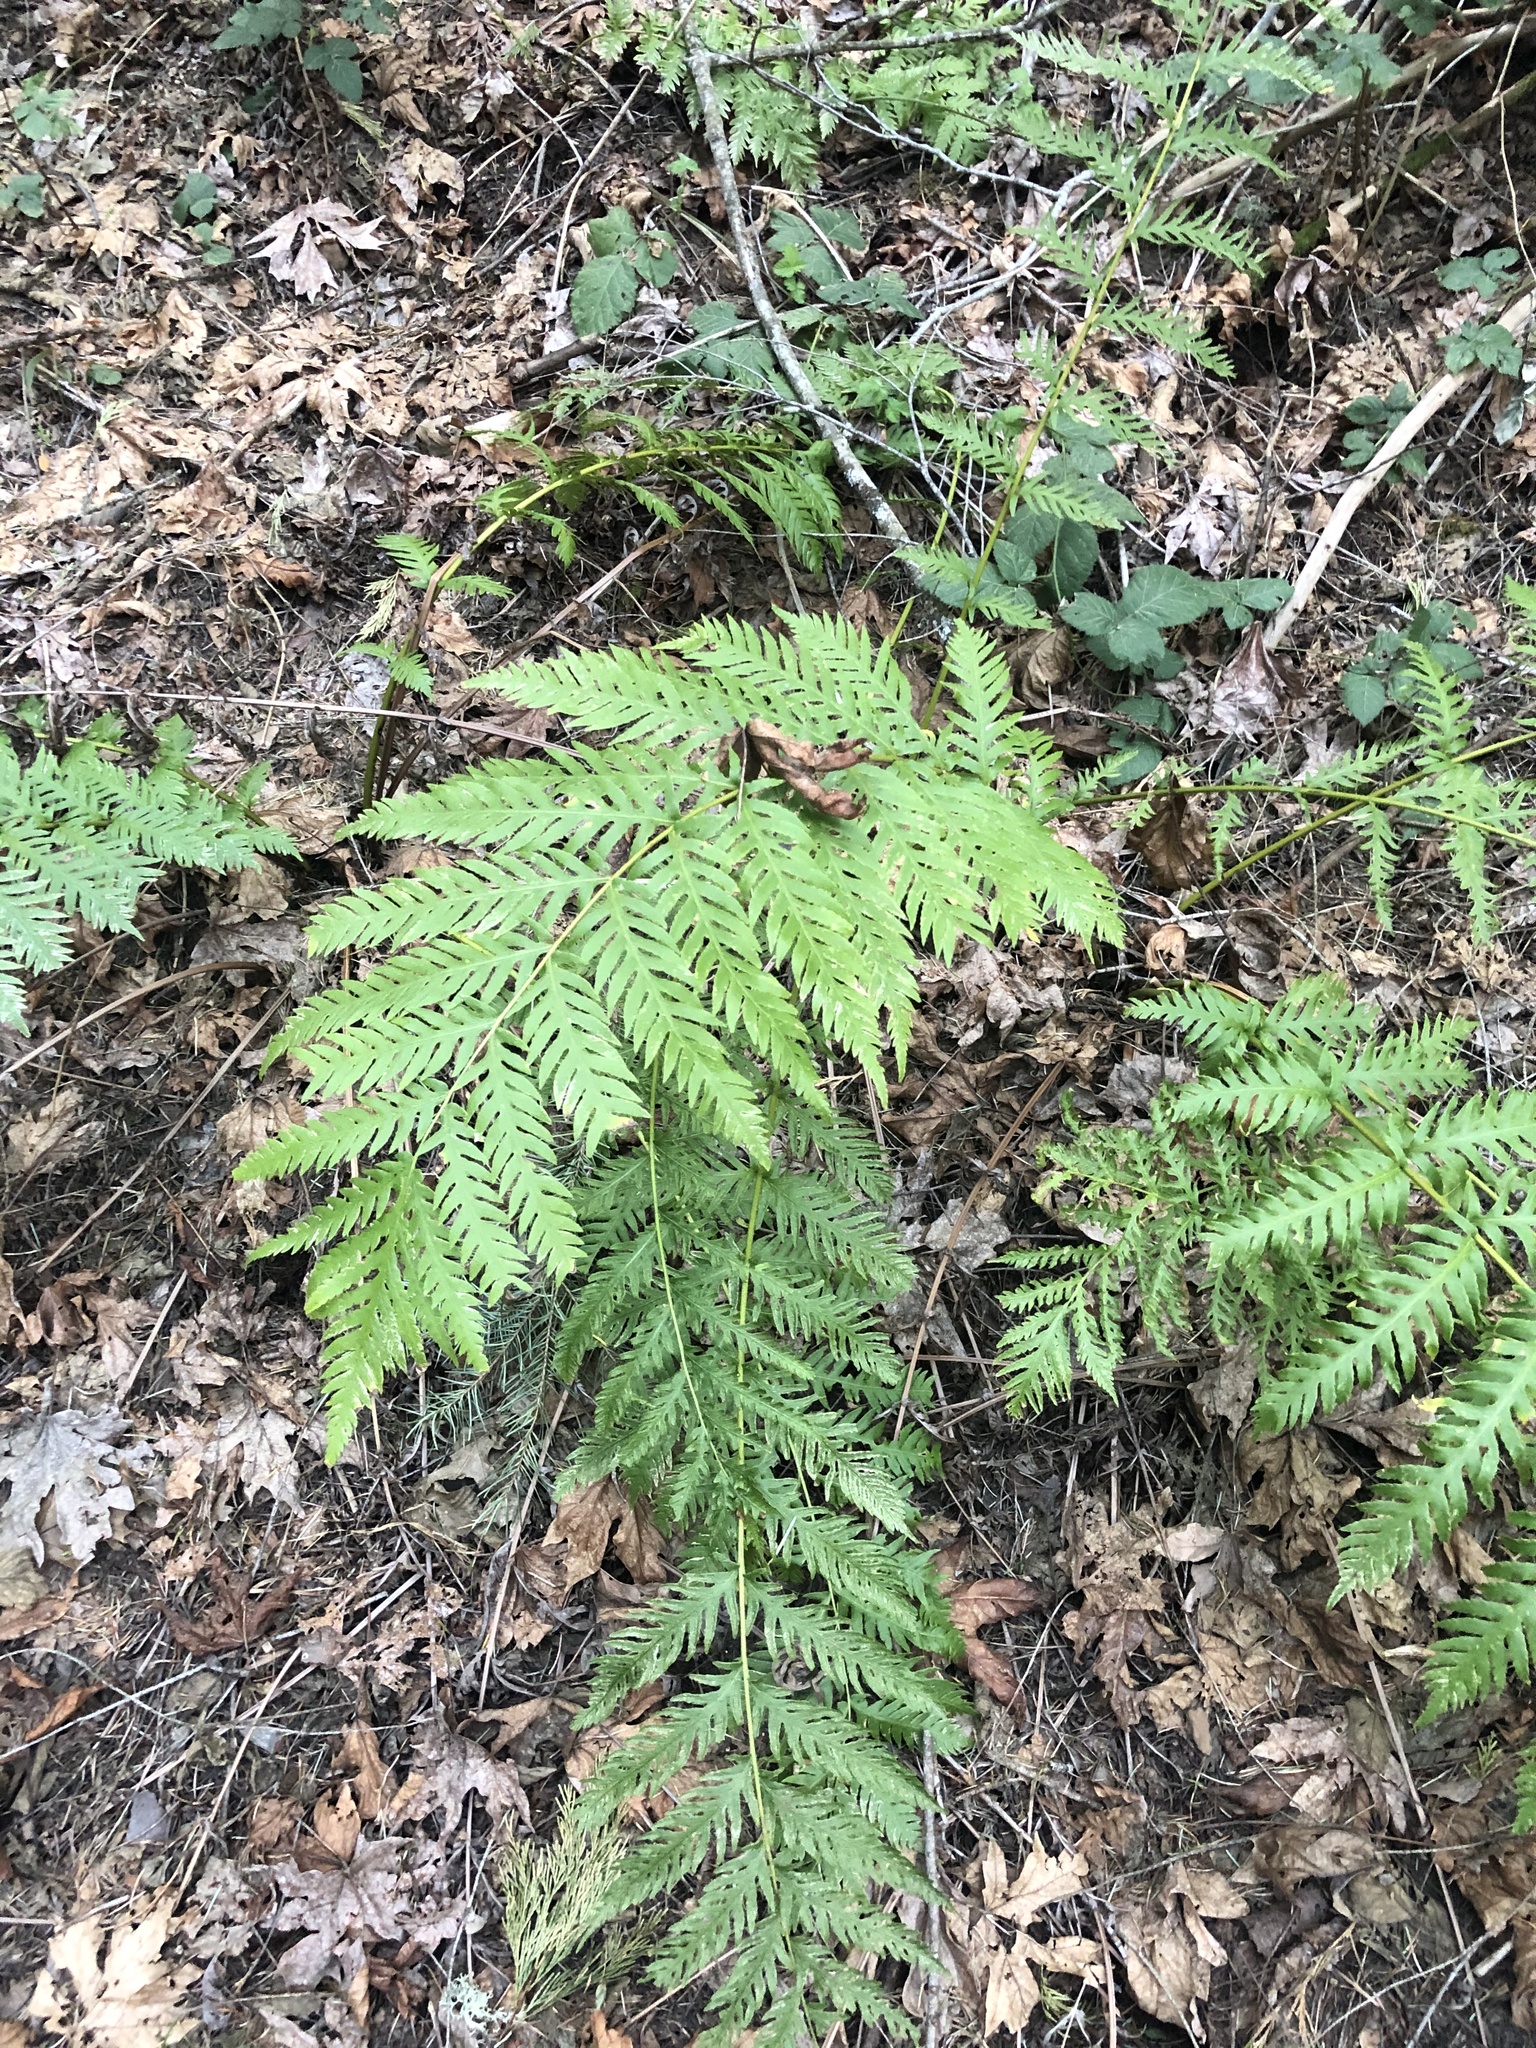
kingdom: Plantae
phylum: Tracheophyta
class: Polypodiopsida
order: Polypodiales
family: Blechnaceae
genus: Woodwardia
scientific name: Woodwardia fimbriata
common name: Giant chain fern
